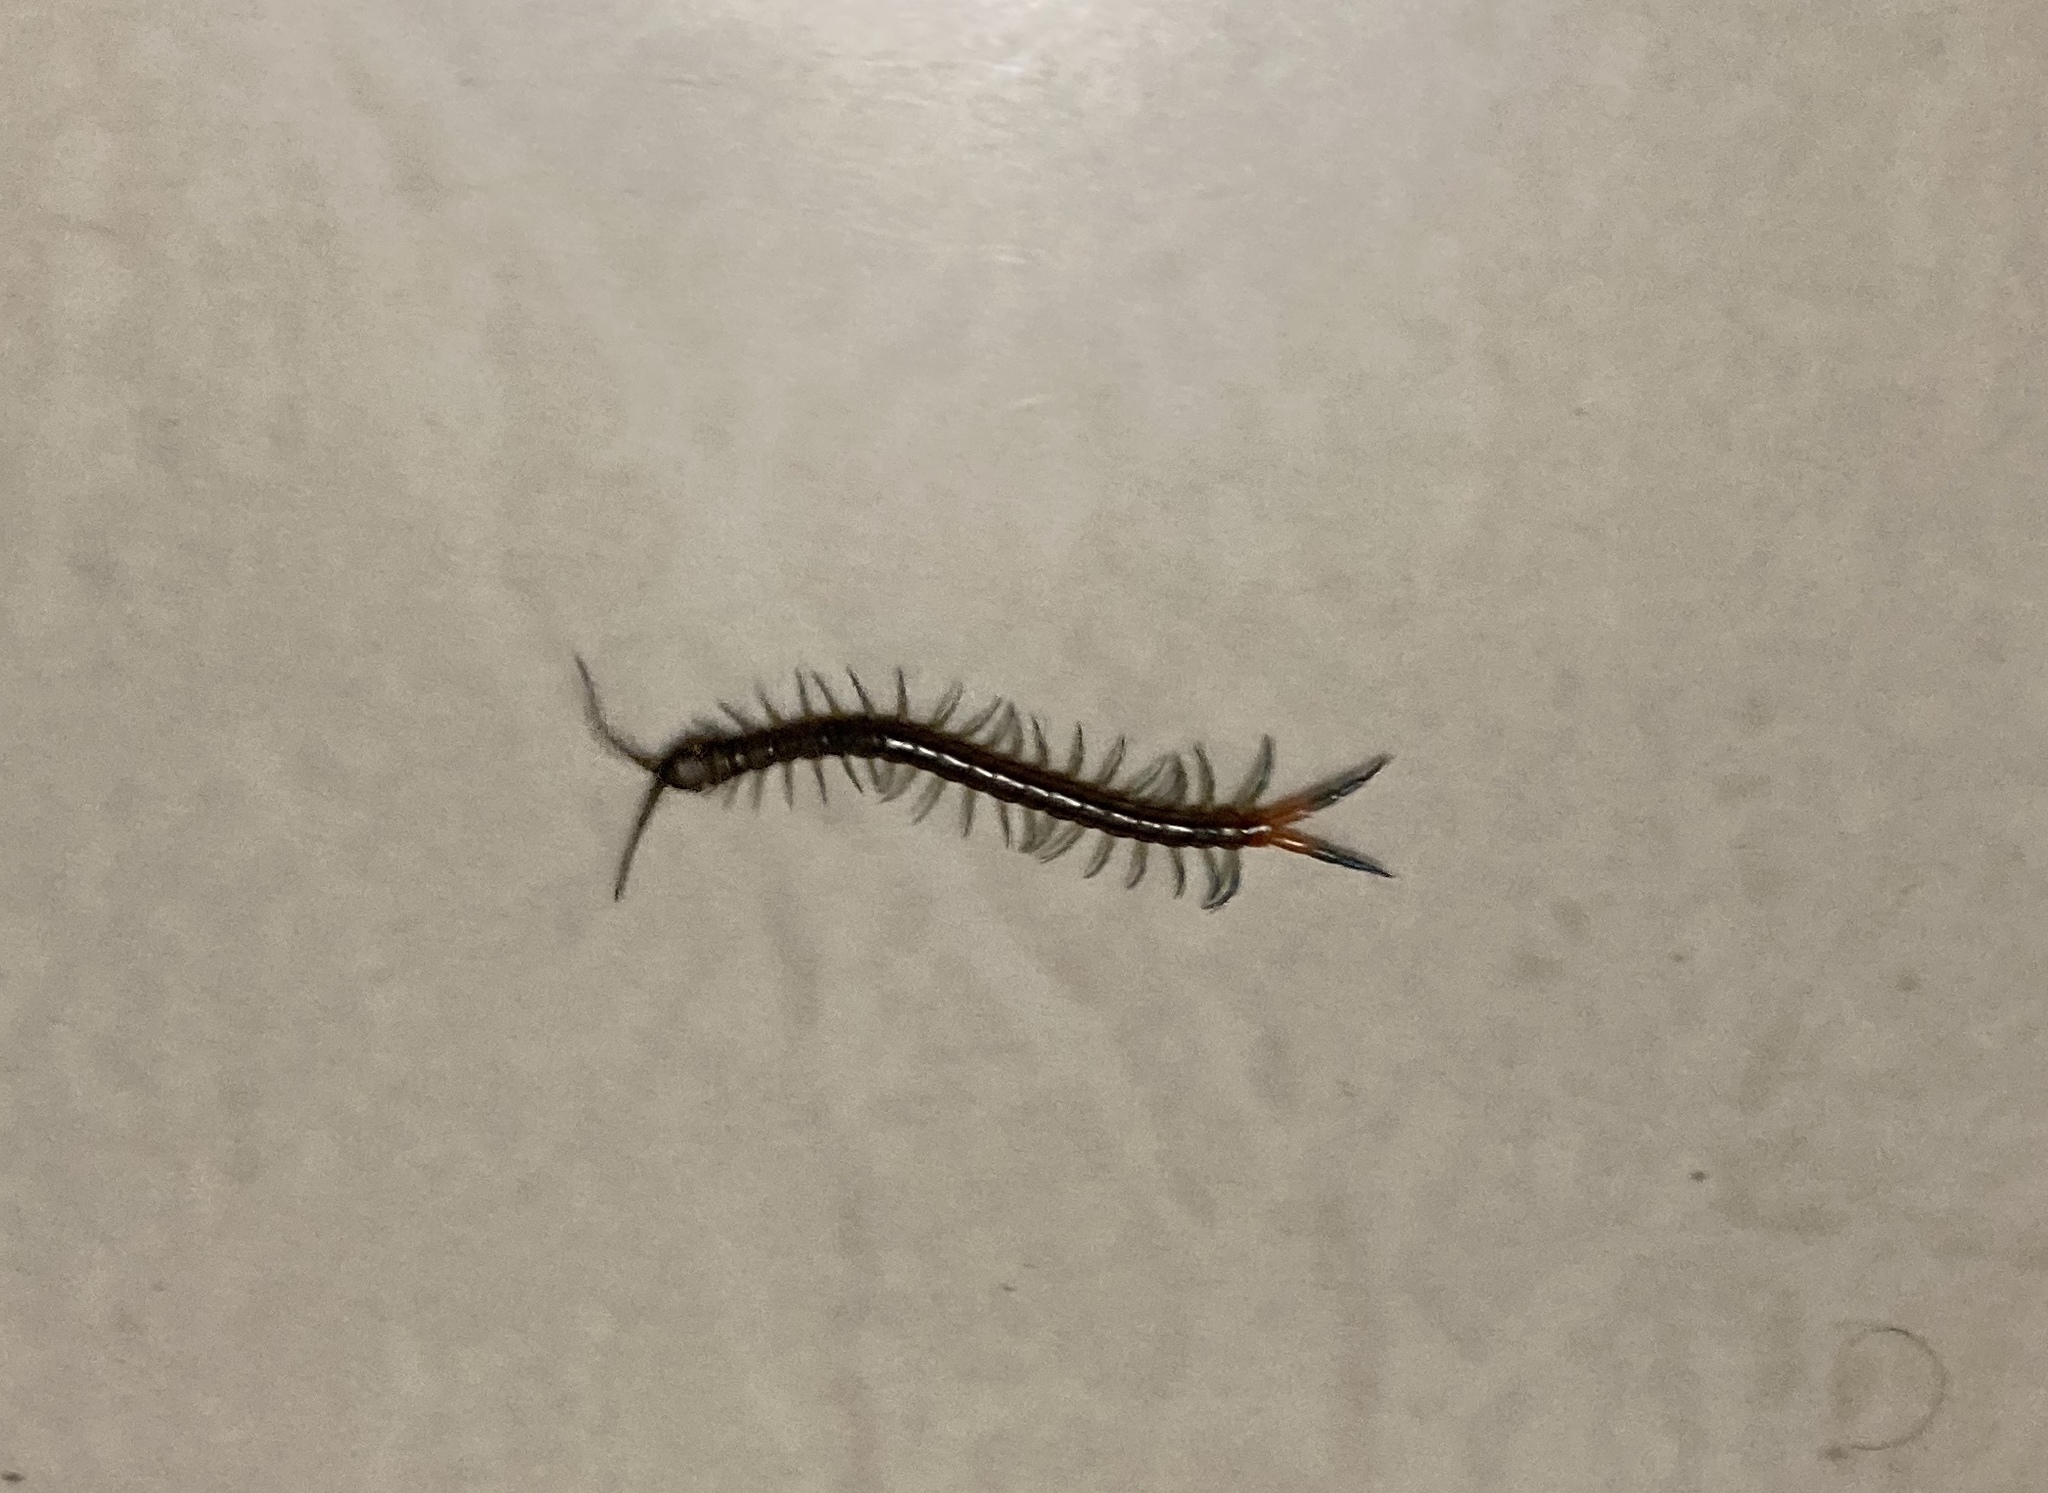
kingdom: Animalia
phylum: Arthropoda
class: Chilopoda
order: Scolopendromorpha
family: Scolopendridae
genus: Scolopendra
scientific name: Scolopendra cingulata
